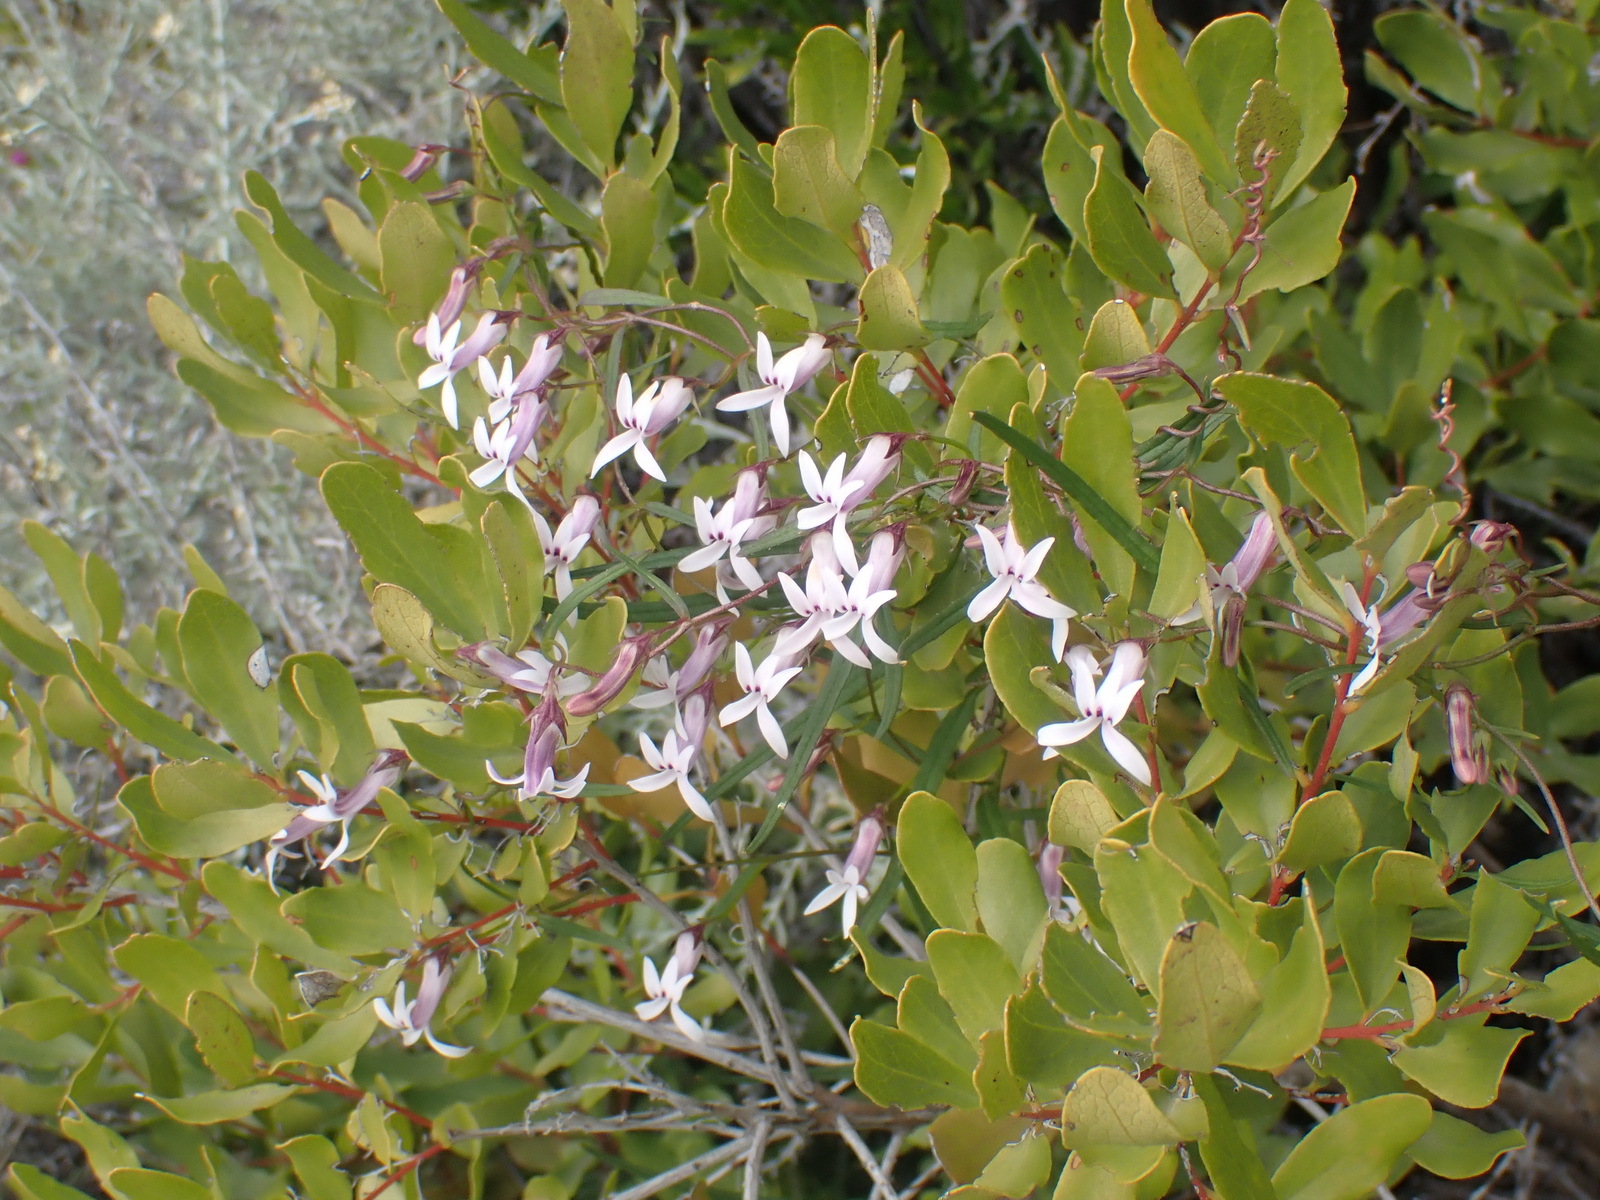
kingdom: Plantae
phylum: Tracheophyta
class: Magnoliopsida
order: Asterales
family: Campanulaceae
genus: Cyphia
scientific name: Cyphia sylvatica
